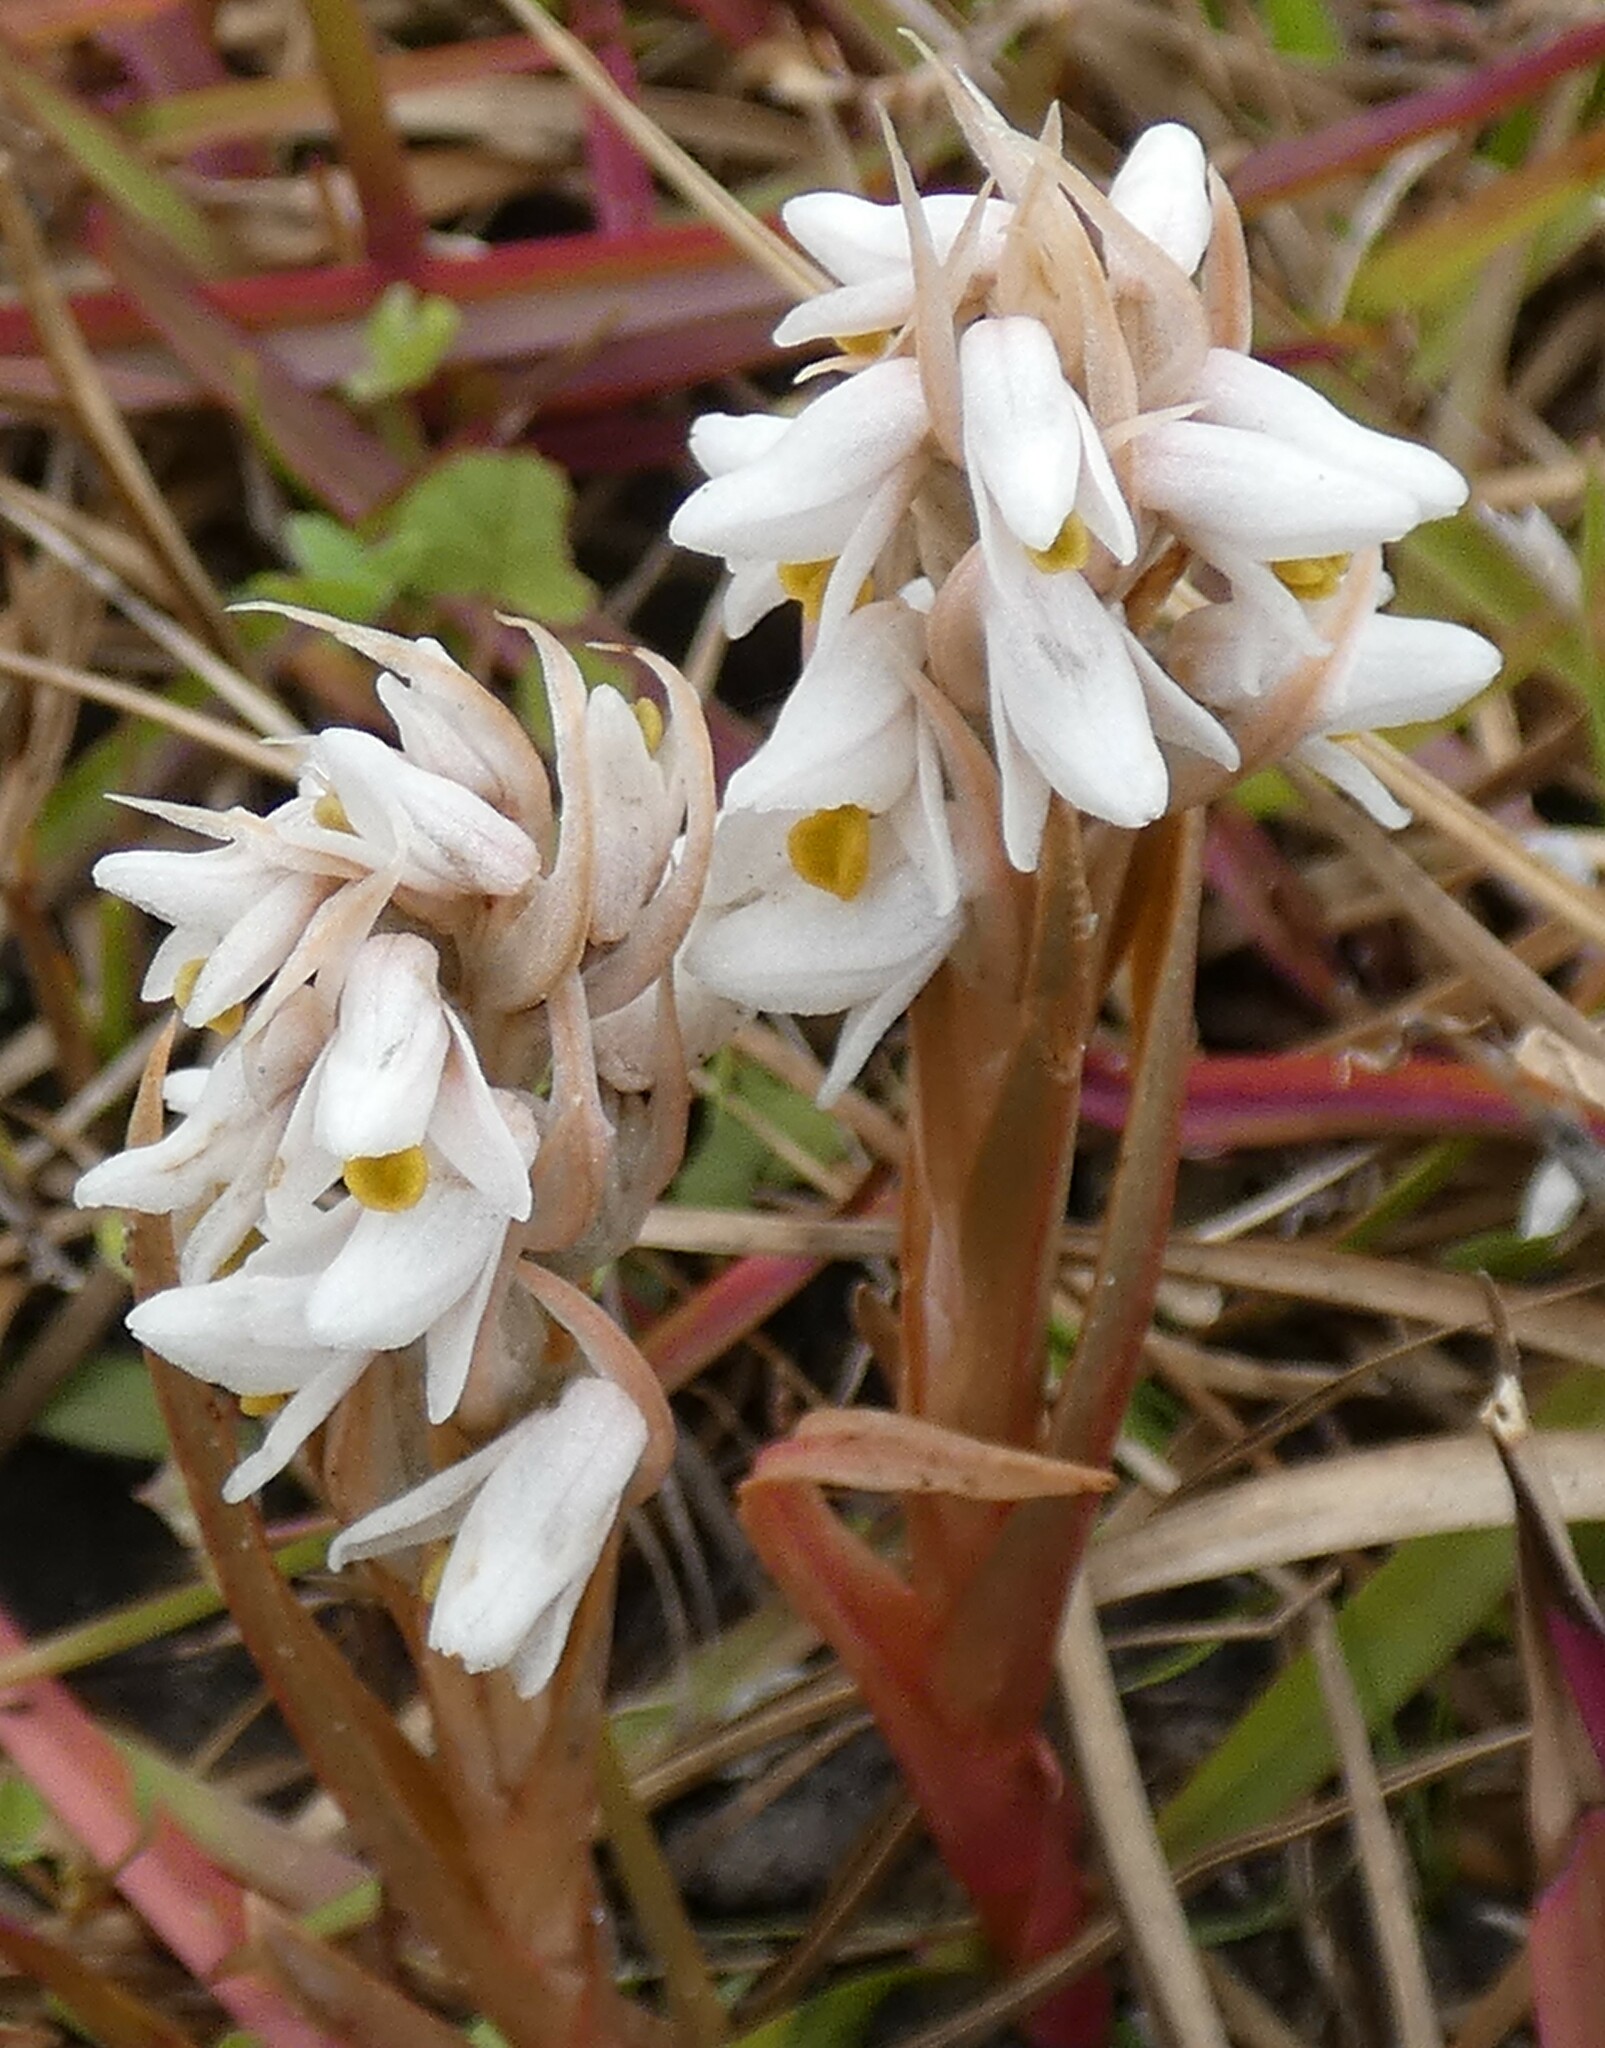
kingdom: Plantae
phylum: Tracheophyta
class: Liliopsida
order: Asparagales
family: Orchidaceae
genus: Zeuxine
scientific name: Zeuxine strateumatica
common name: Soldier's orchid
